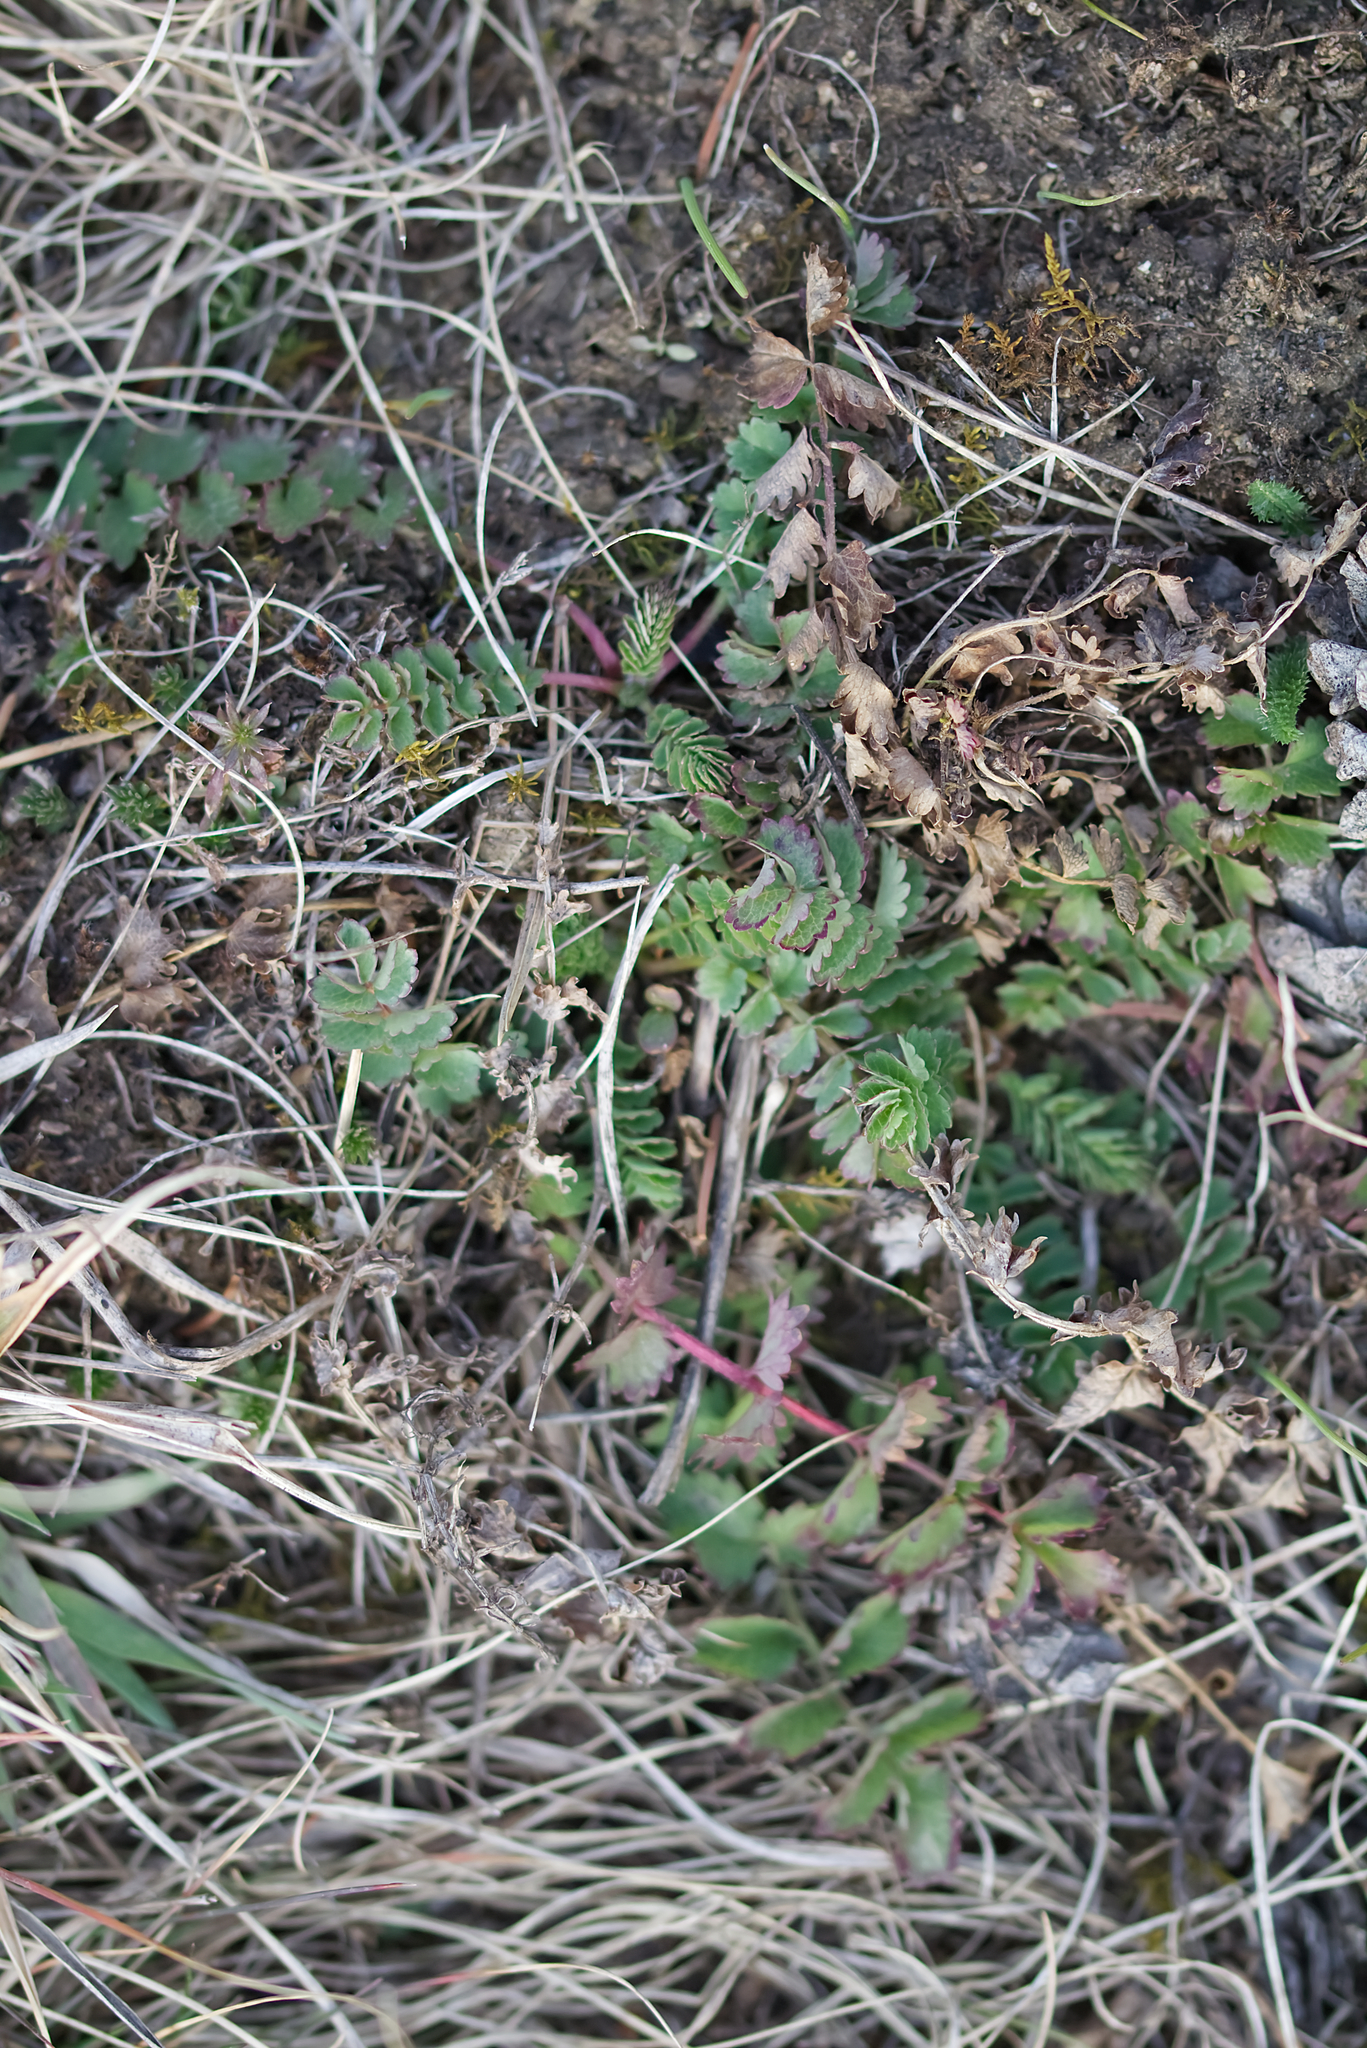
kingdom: Plantae
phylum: Tracheophyta
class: Magnoliopsida
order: Rosales
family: Rosaceae
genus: Poterium
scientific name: Poterium sanguisorba
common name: Salad burnet
